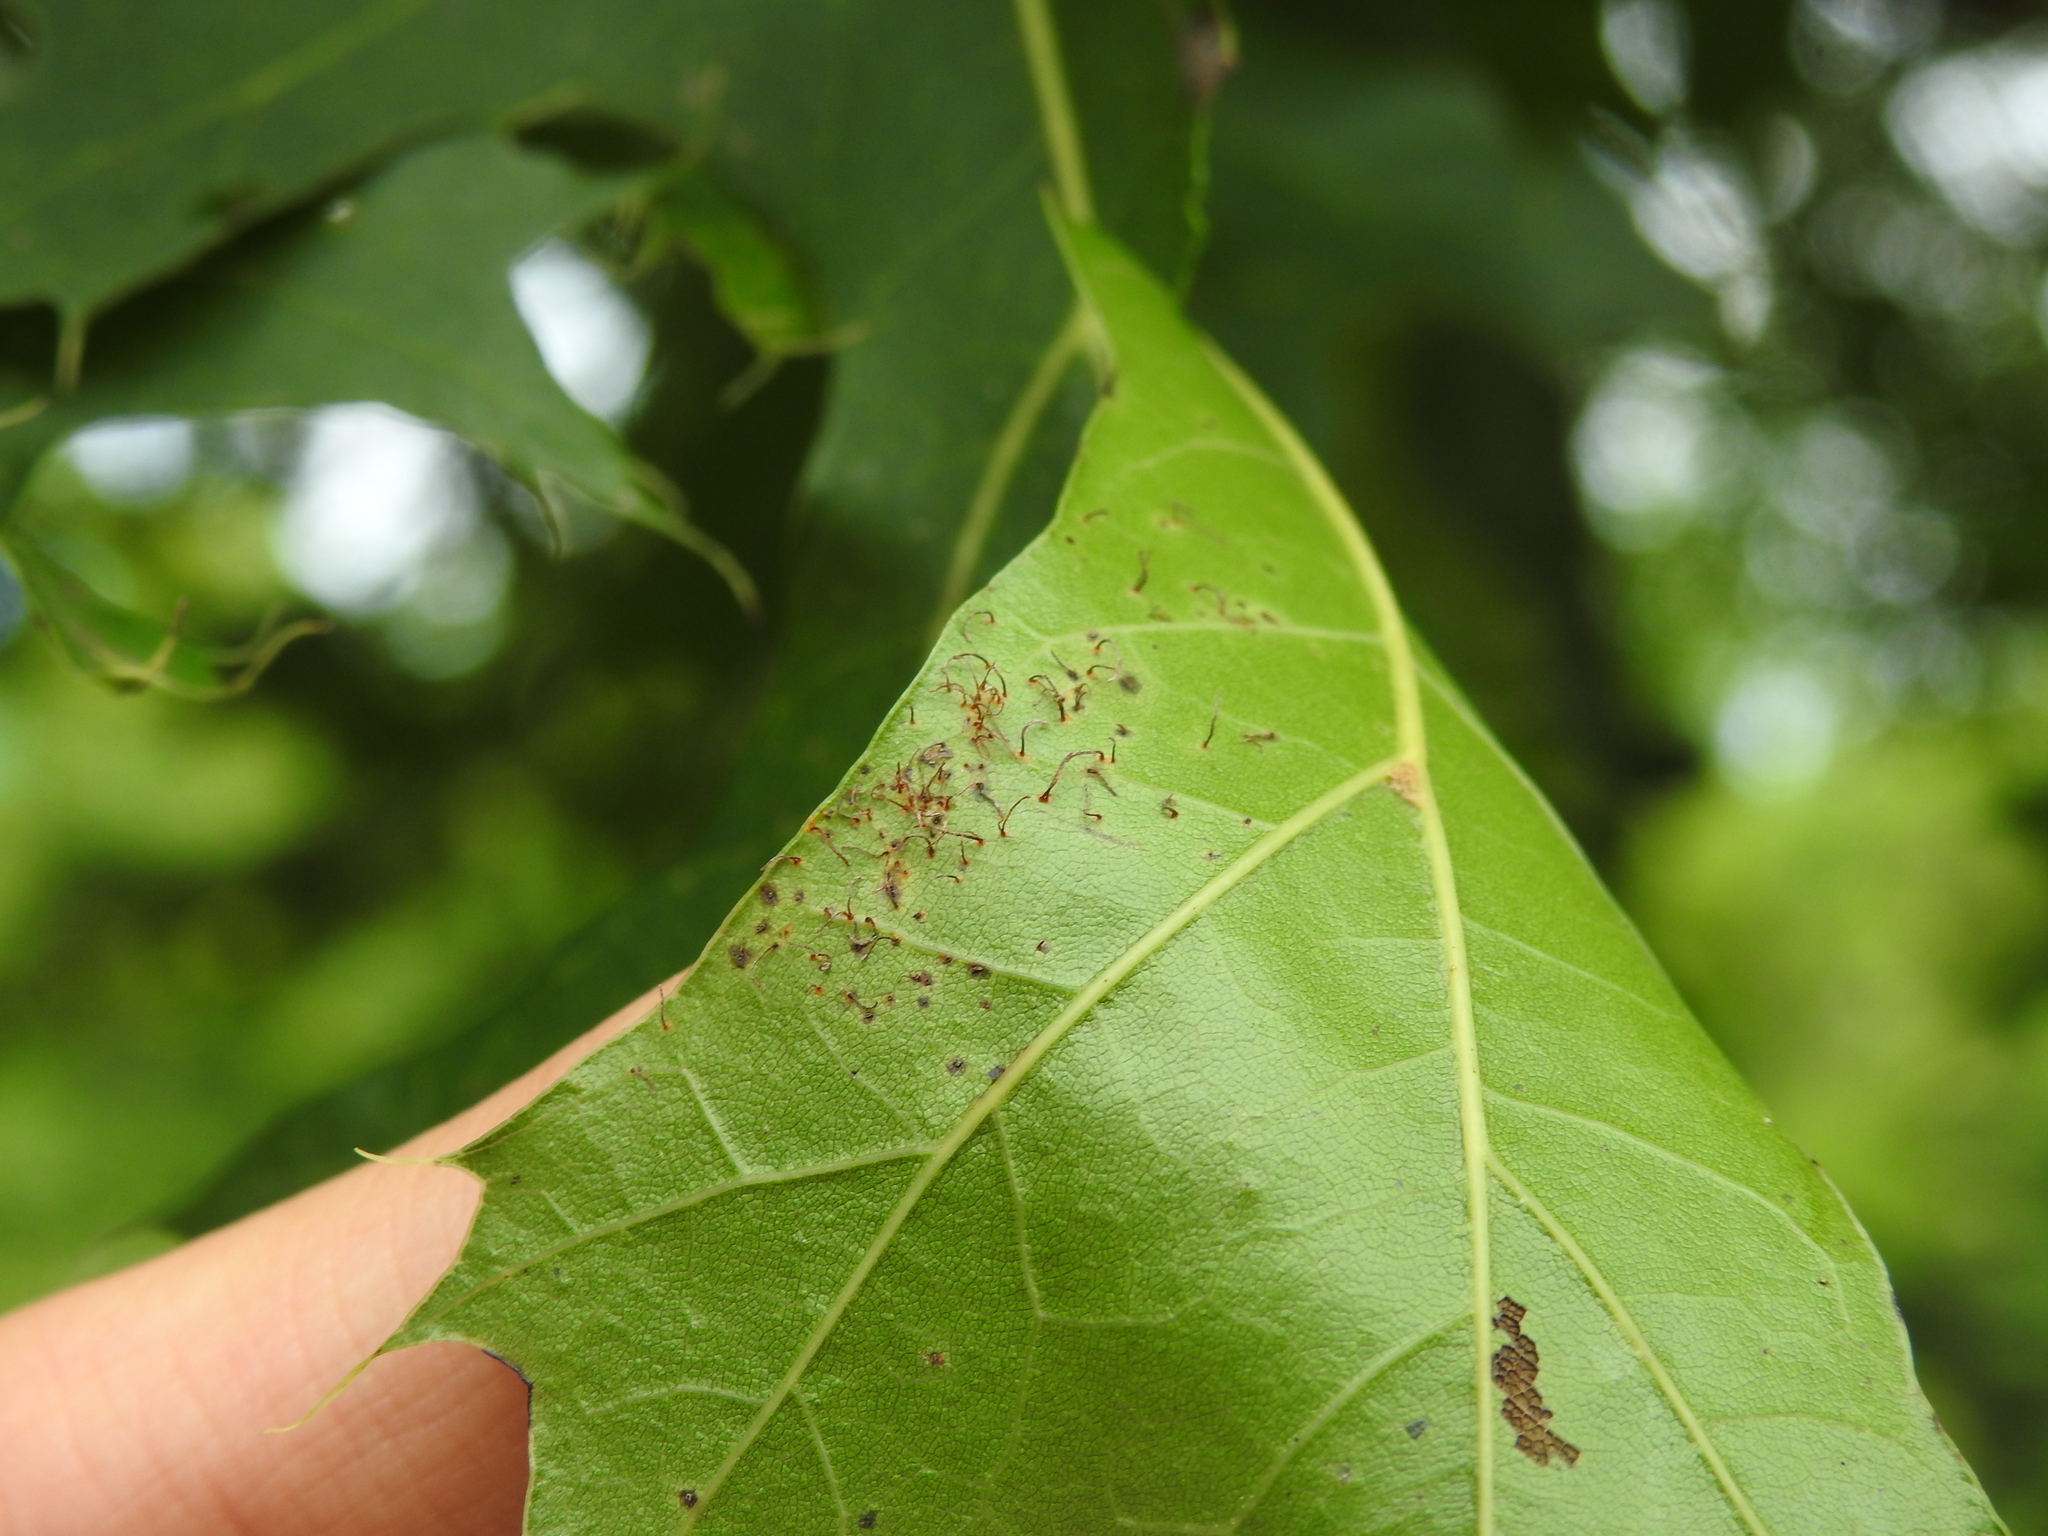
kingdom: Fungi
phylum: Basidiomycota
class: Pucciniomycetes
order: Pucciniales
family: Cronartiaceae
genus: Cronartium
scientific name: Cronartium quercuum
